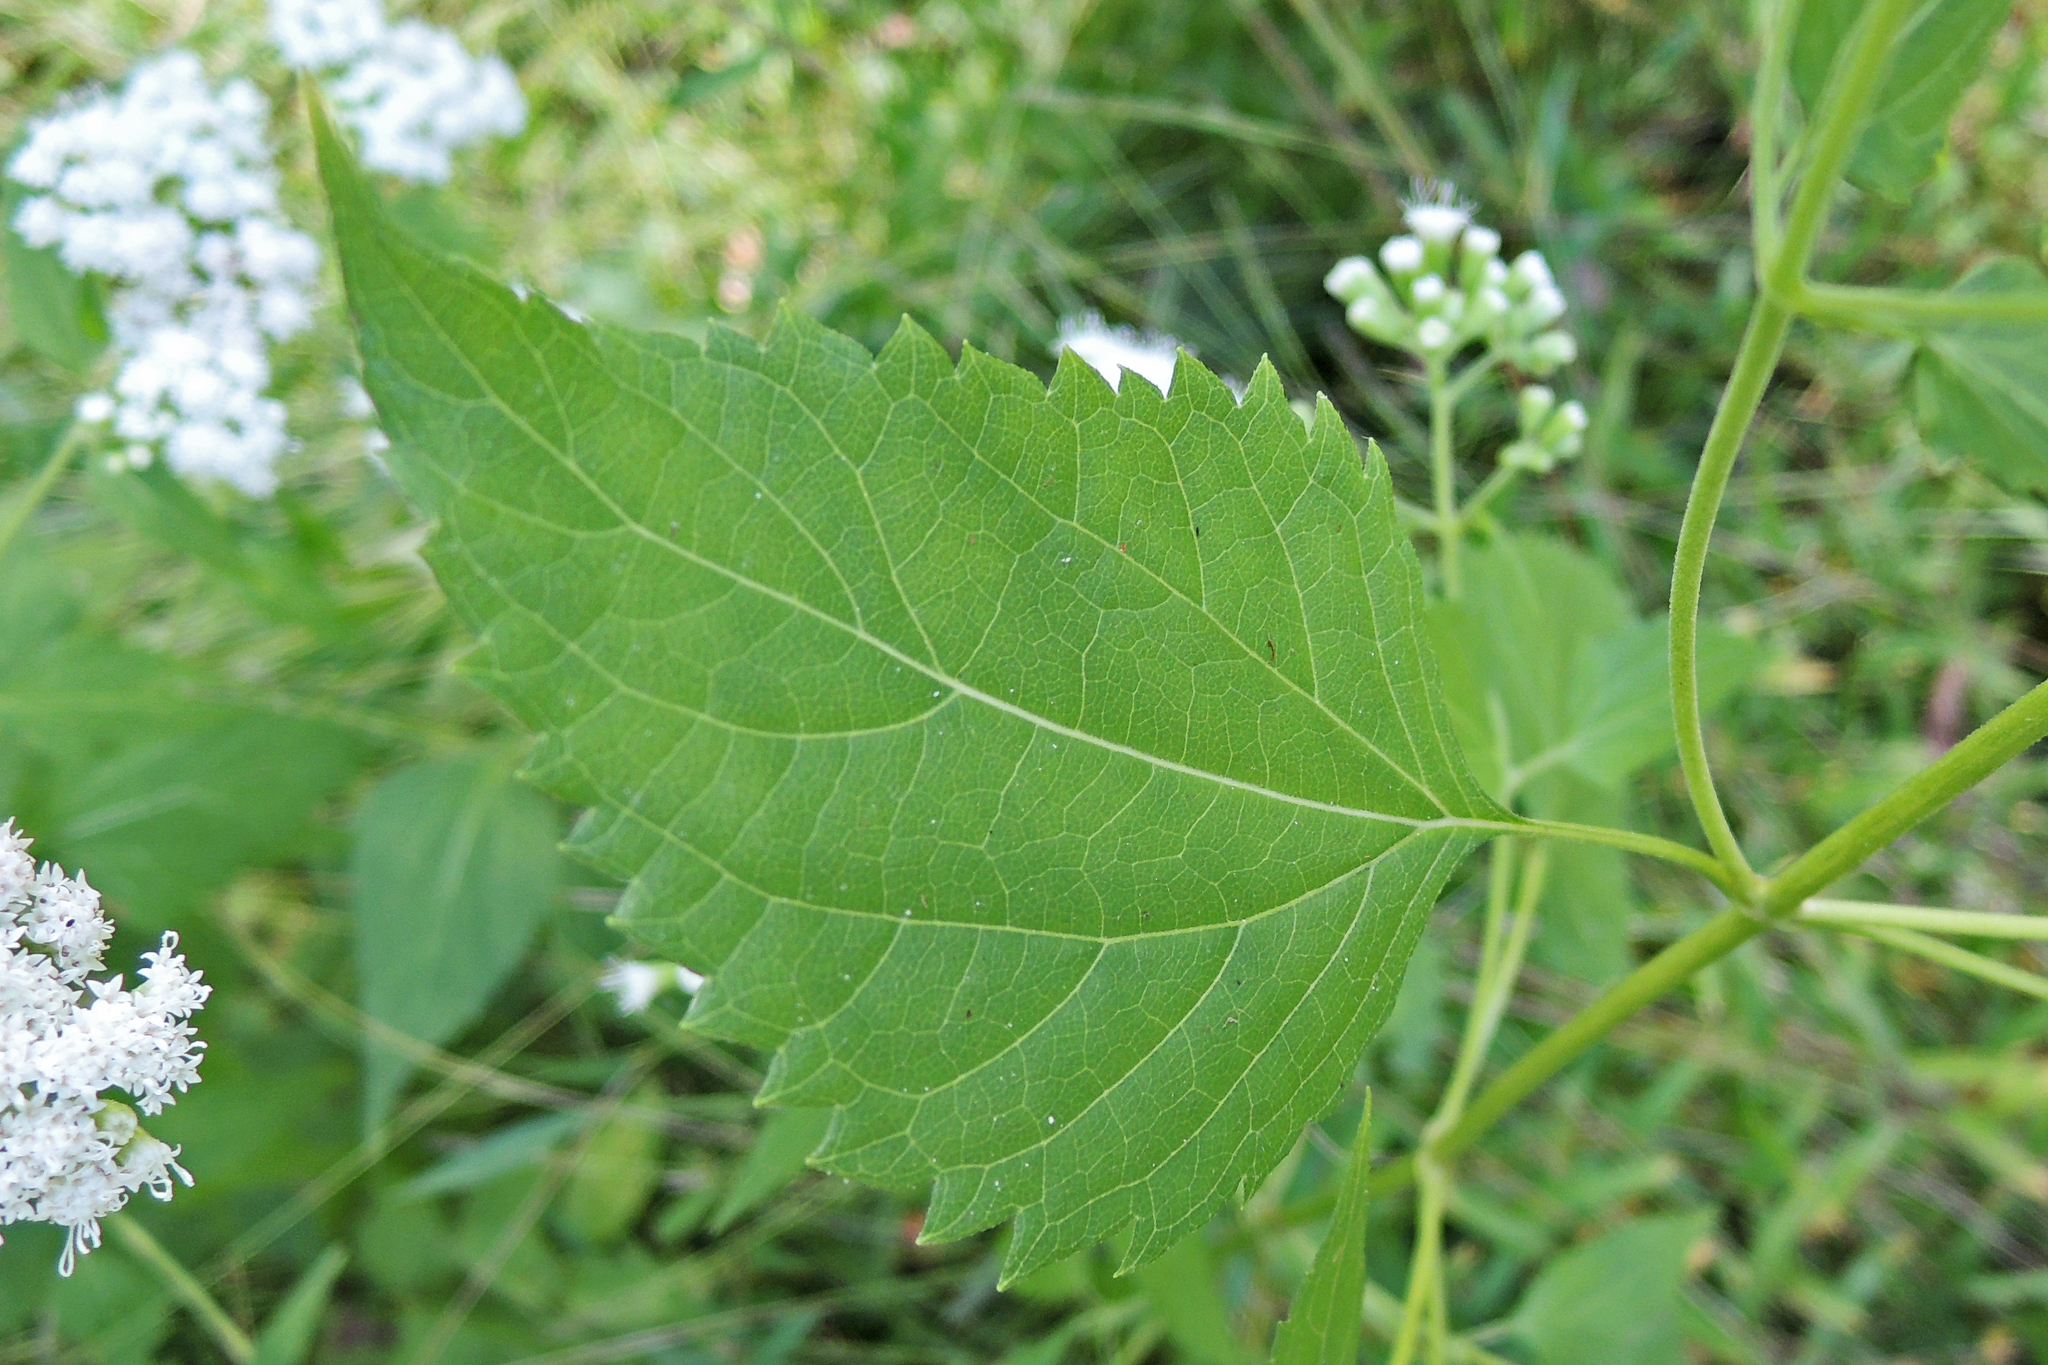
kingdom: Plantae
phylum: Tracheophyta
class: Magnoliopsida
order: Asterales
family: Asteraceae
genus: Ageratina
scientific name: Ageratina altissima
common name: White snakeroot
